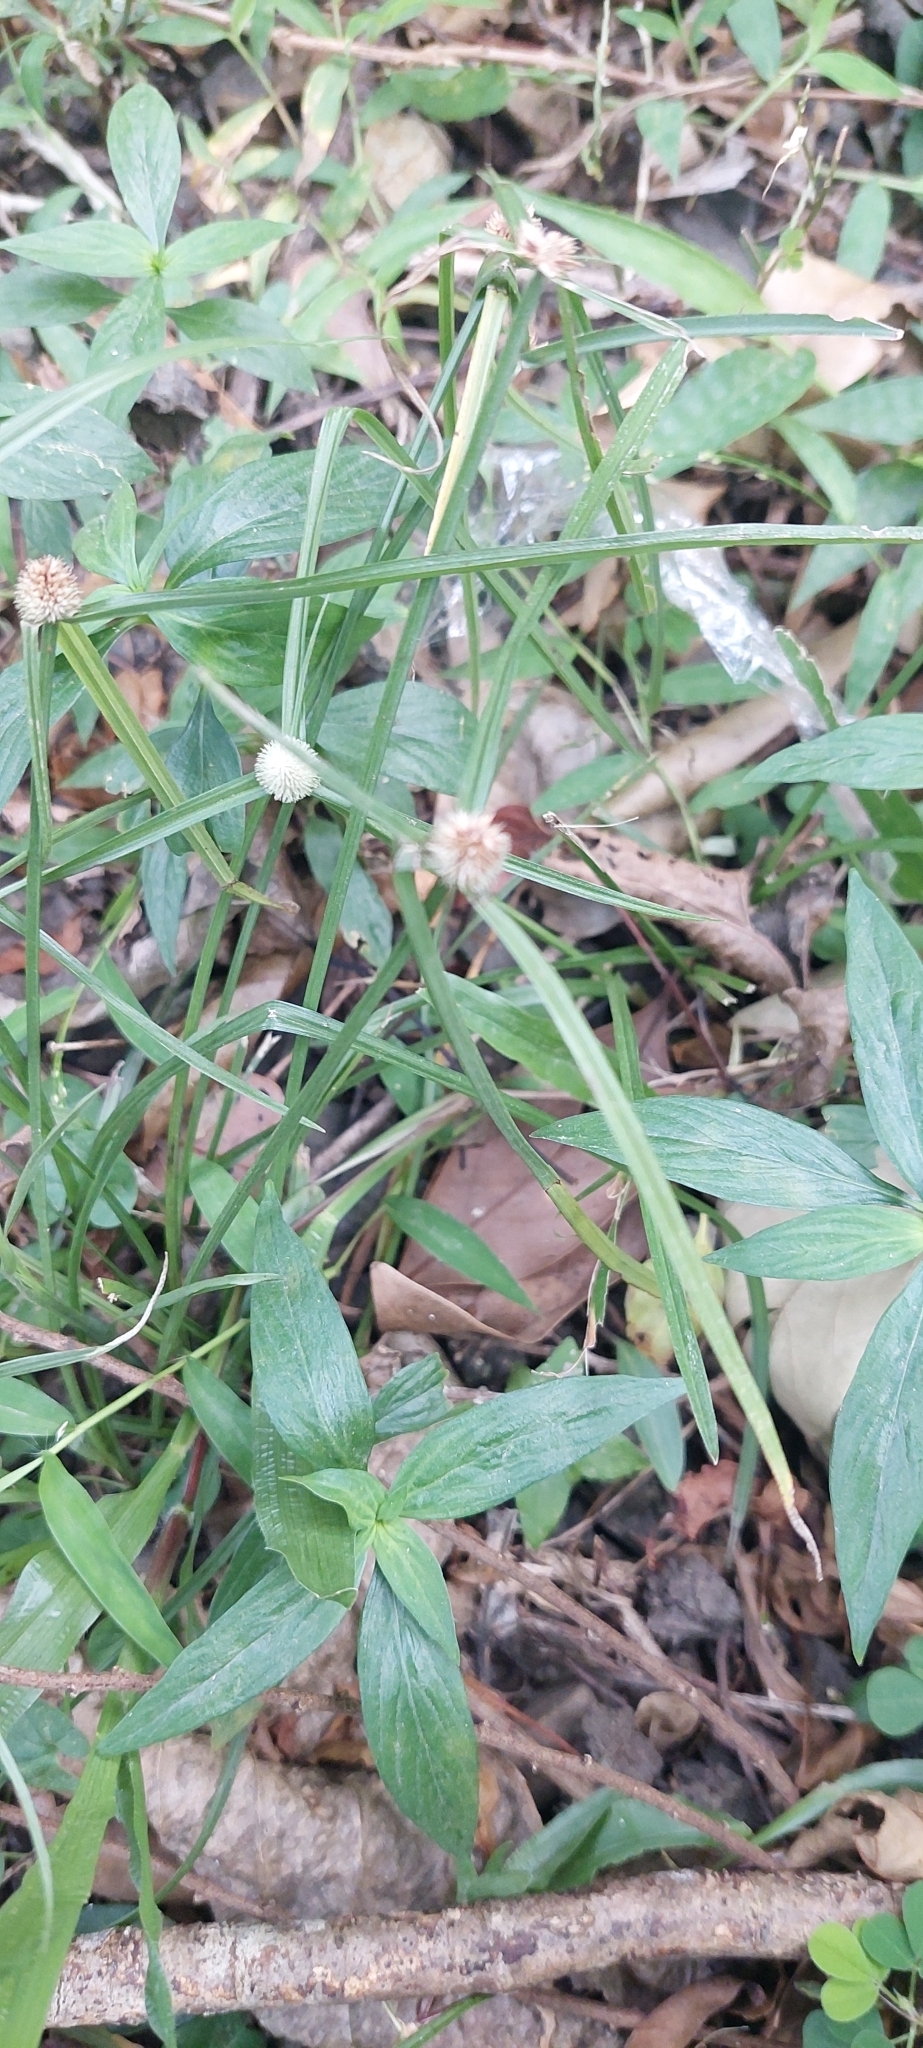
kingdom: Plantae
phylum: Tracheophyta
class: Liliopsida
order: Poales
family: Cyperaceae
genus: Cyperus
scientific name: Cyperus mindorensis
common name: Flatsedge
